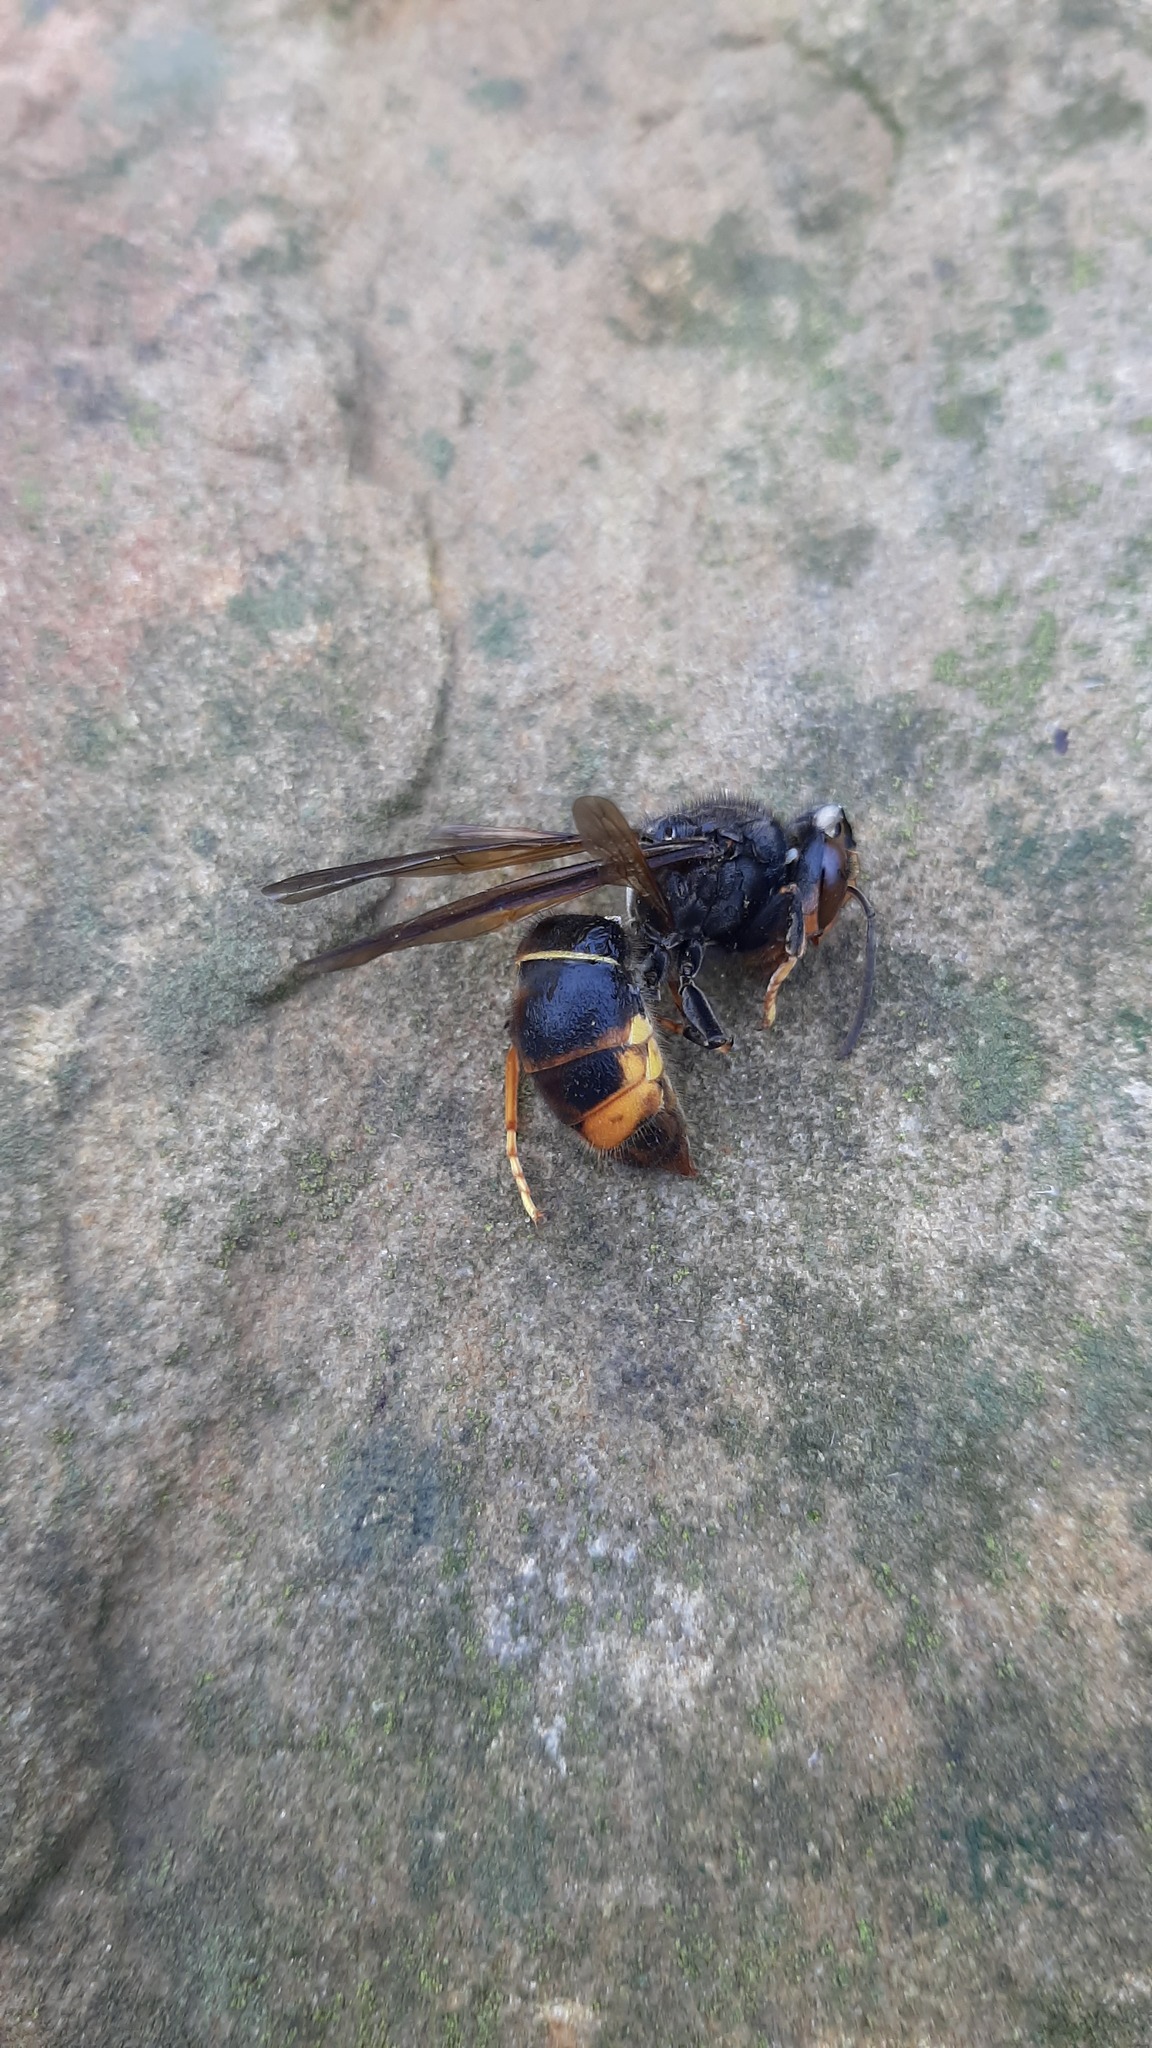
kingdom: Animalia
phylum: Arthropoda
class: Insecta
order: Hymenoptera
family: Vespidae
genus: Vespa
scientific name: Vespa velutina
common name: Asian hornet
